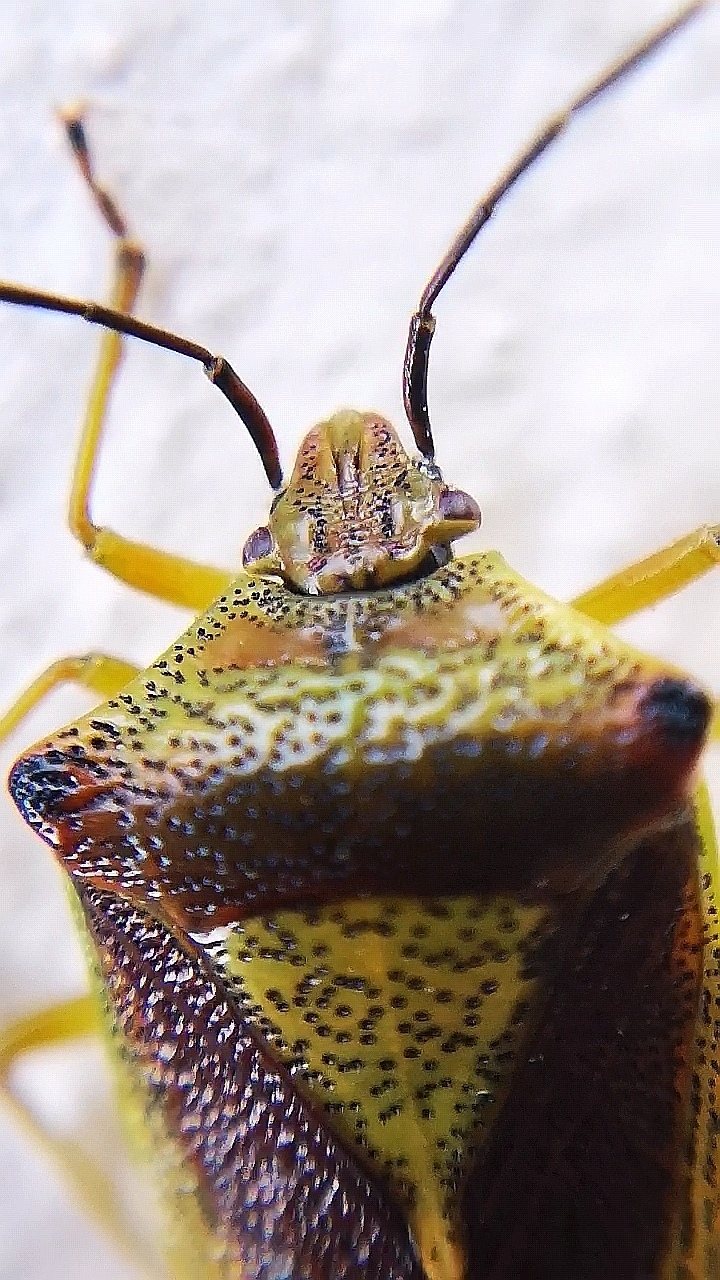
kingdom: Animalia
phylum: Arthropoda
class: Insecta
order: Hemiptera
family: Acanthosomatidae
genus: Acanthosoma
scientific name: Acanthosoma haemorrhoidale
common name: Hawthorn shieldbug
